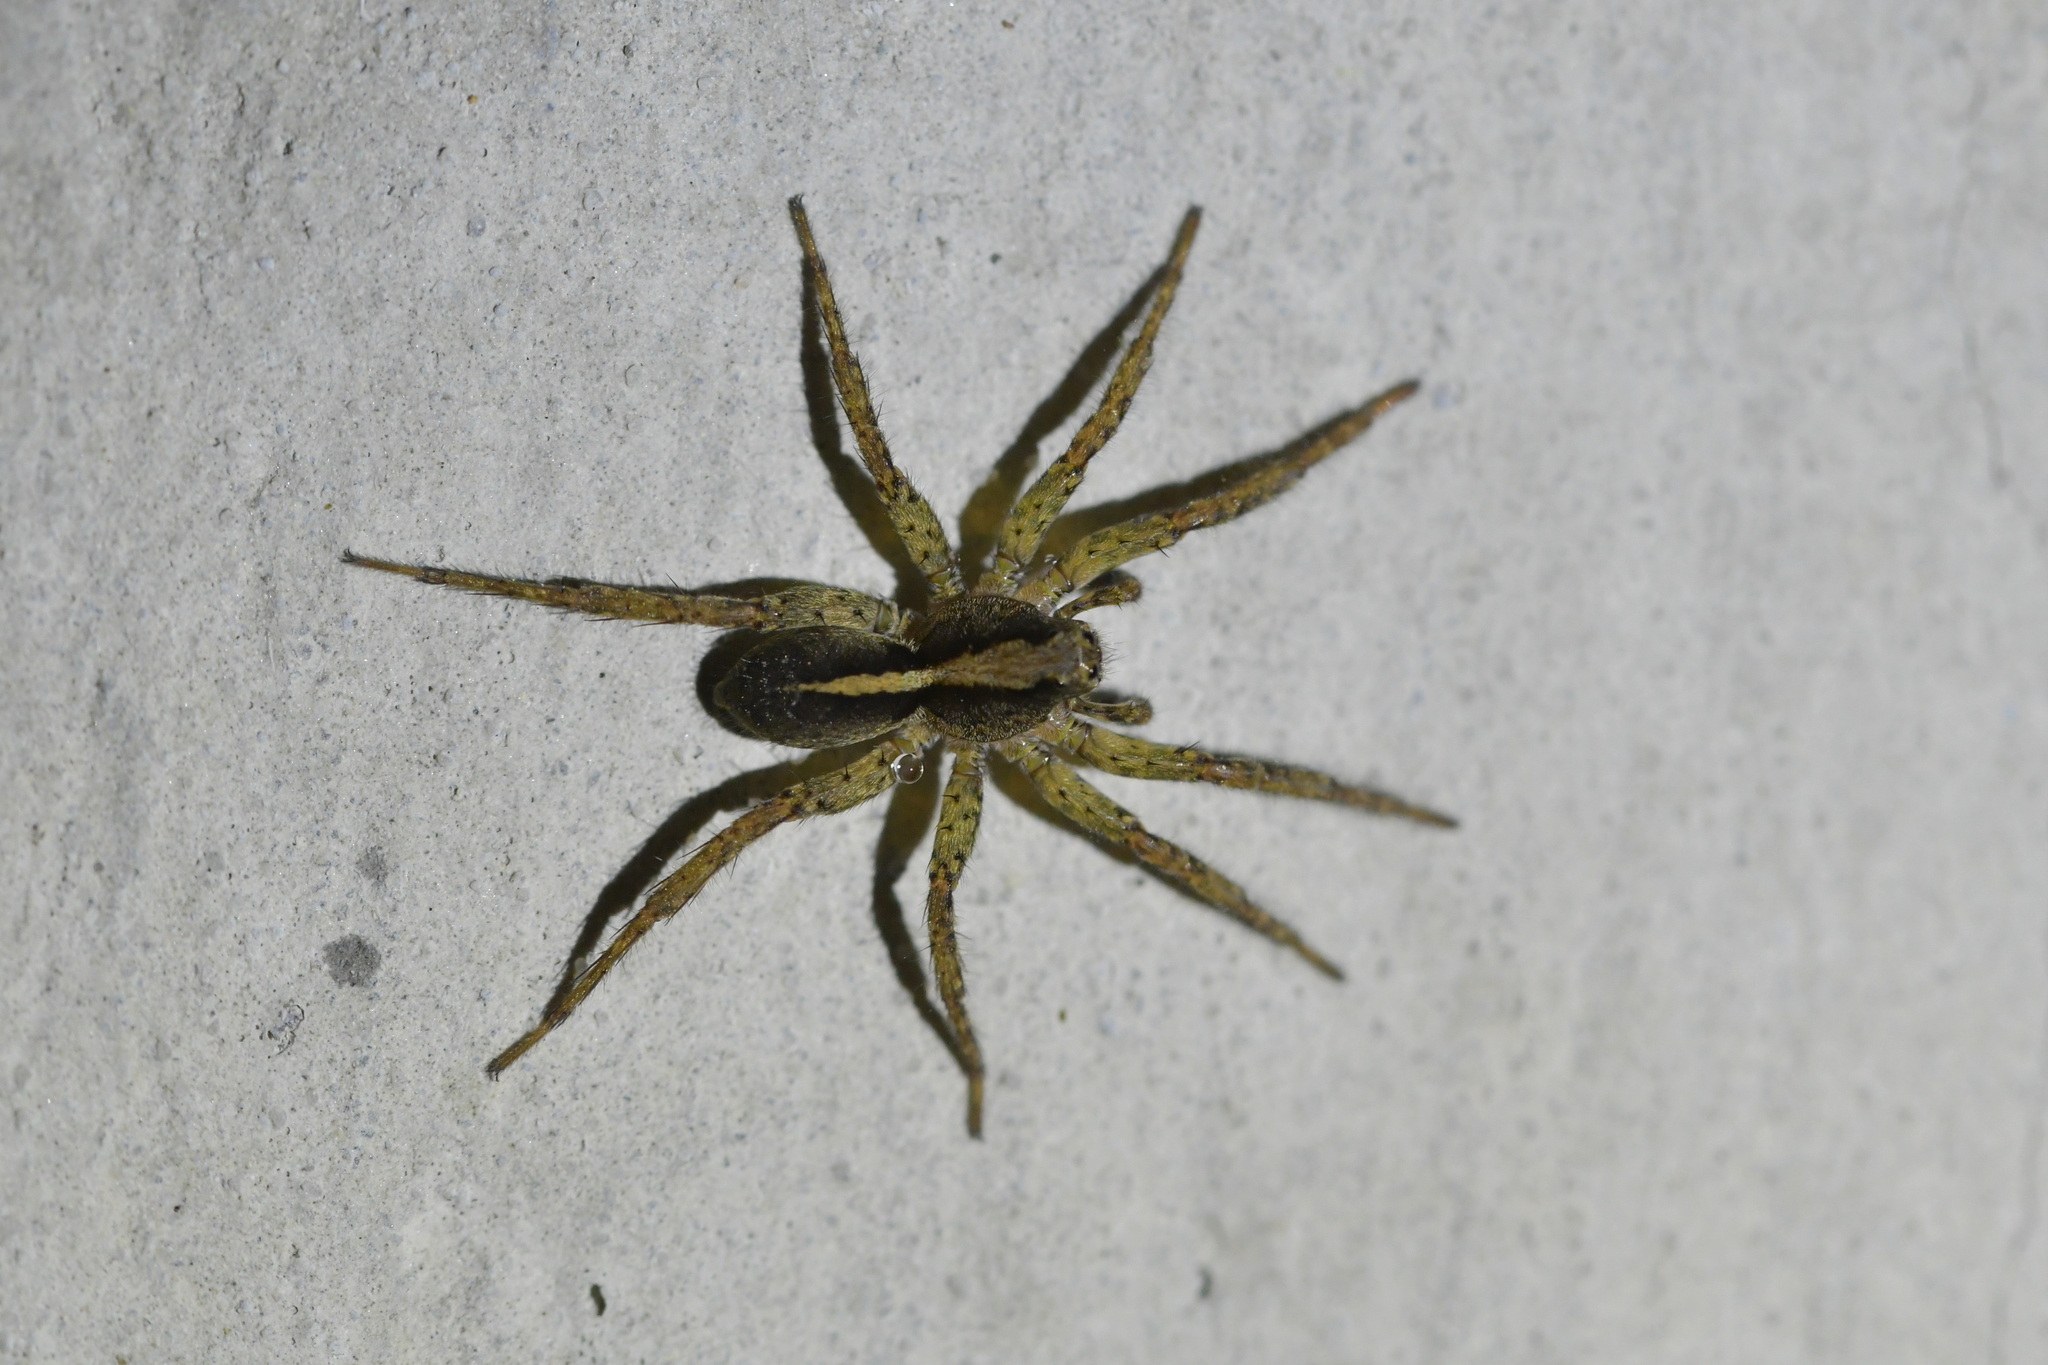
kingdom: Animalia
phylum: Arthropoda
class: Arachnida
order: Araneae
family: Lycosidae
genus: Anoteropsis
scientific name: Anoteropsis hilaris
